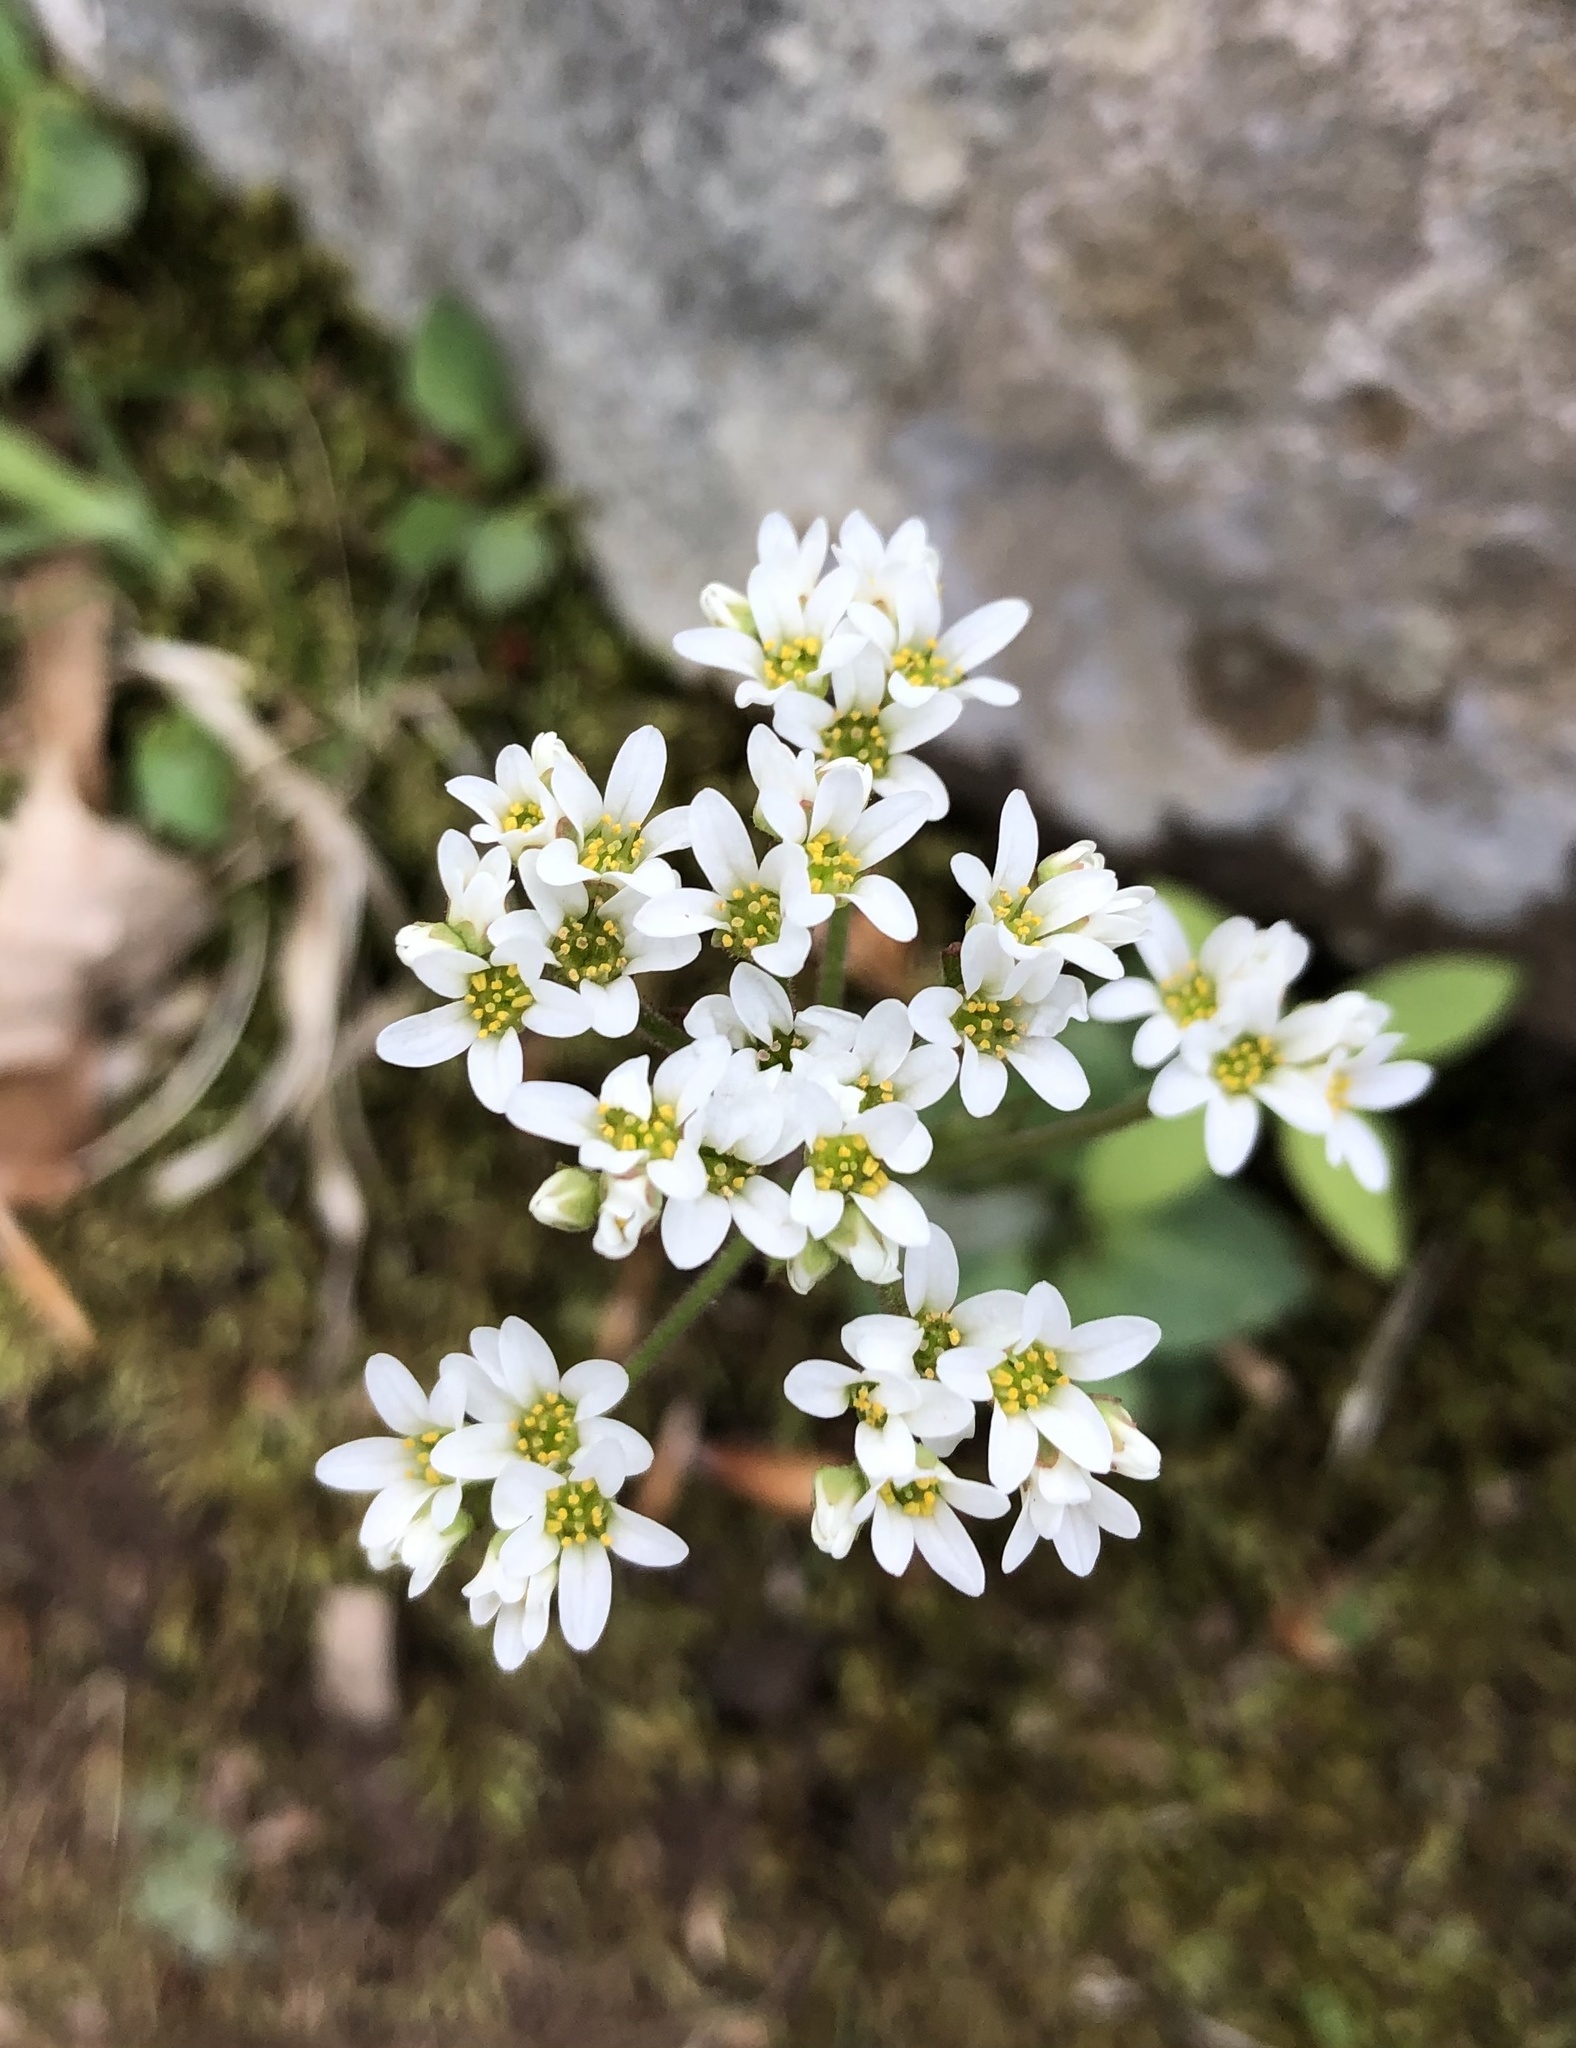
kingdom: Plantae
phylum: Tracheophyta
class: Magnoliopsida
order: Saxifragales
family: Saxifragaceae
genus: Micranthes
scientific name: Micranthes virginiensis
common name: Early saxifrage
